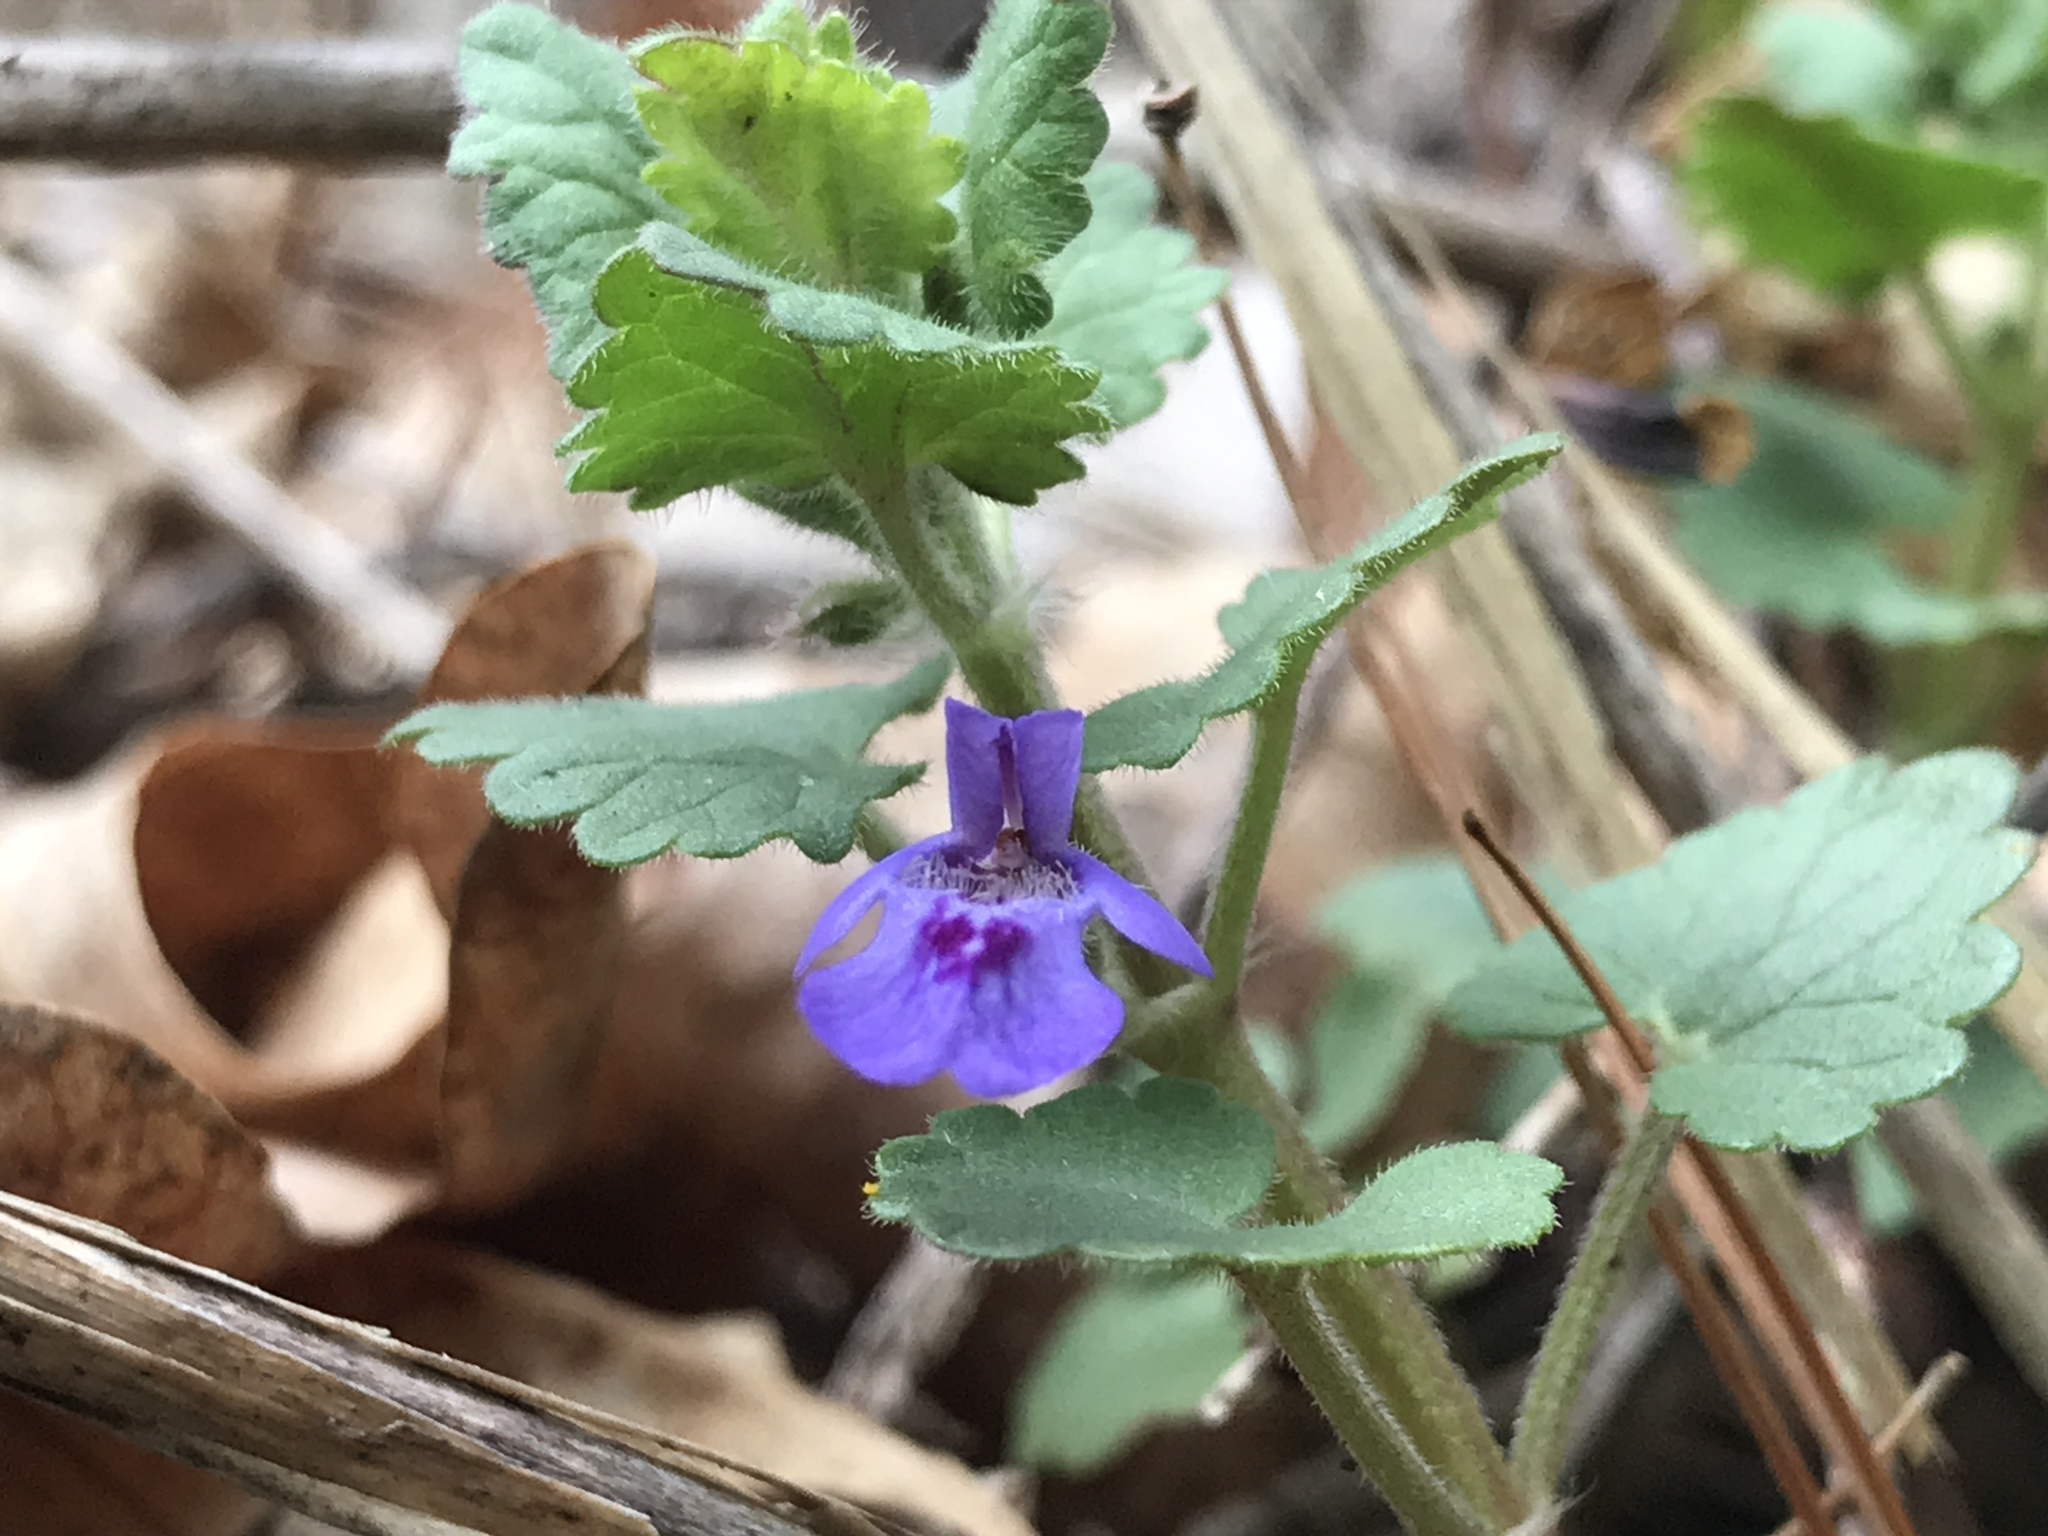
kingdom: Plantae
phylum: Tracheophyta
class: Magnoliopsida
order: Lamiales
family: Lamiaceae
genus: Glechoma
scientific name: Glechoma hederacea
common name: Ground ivy
